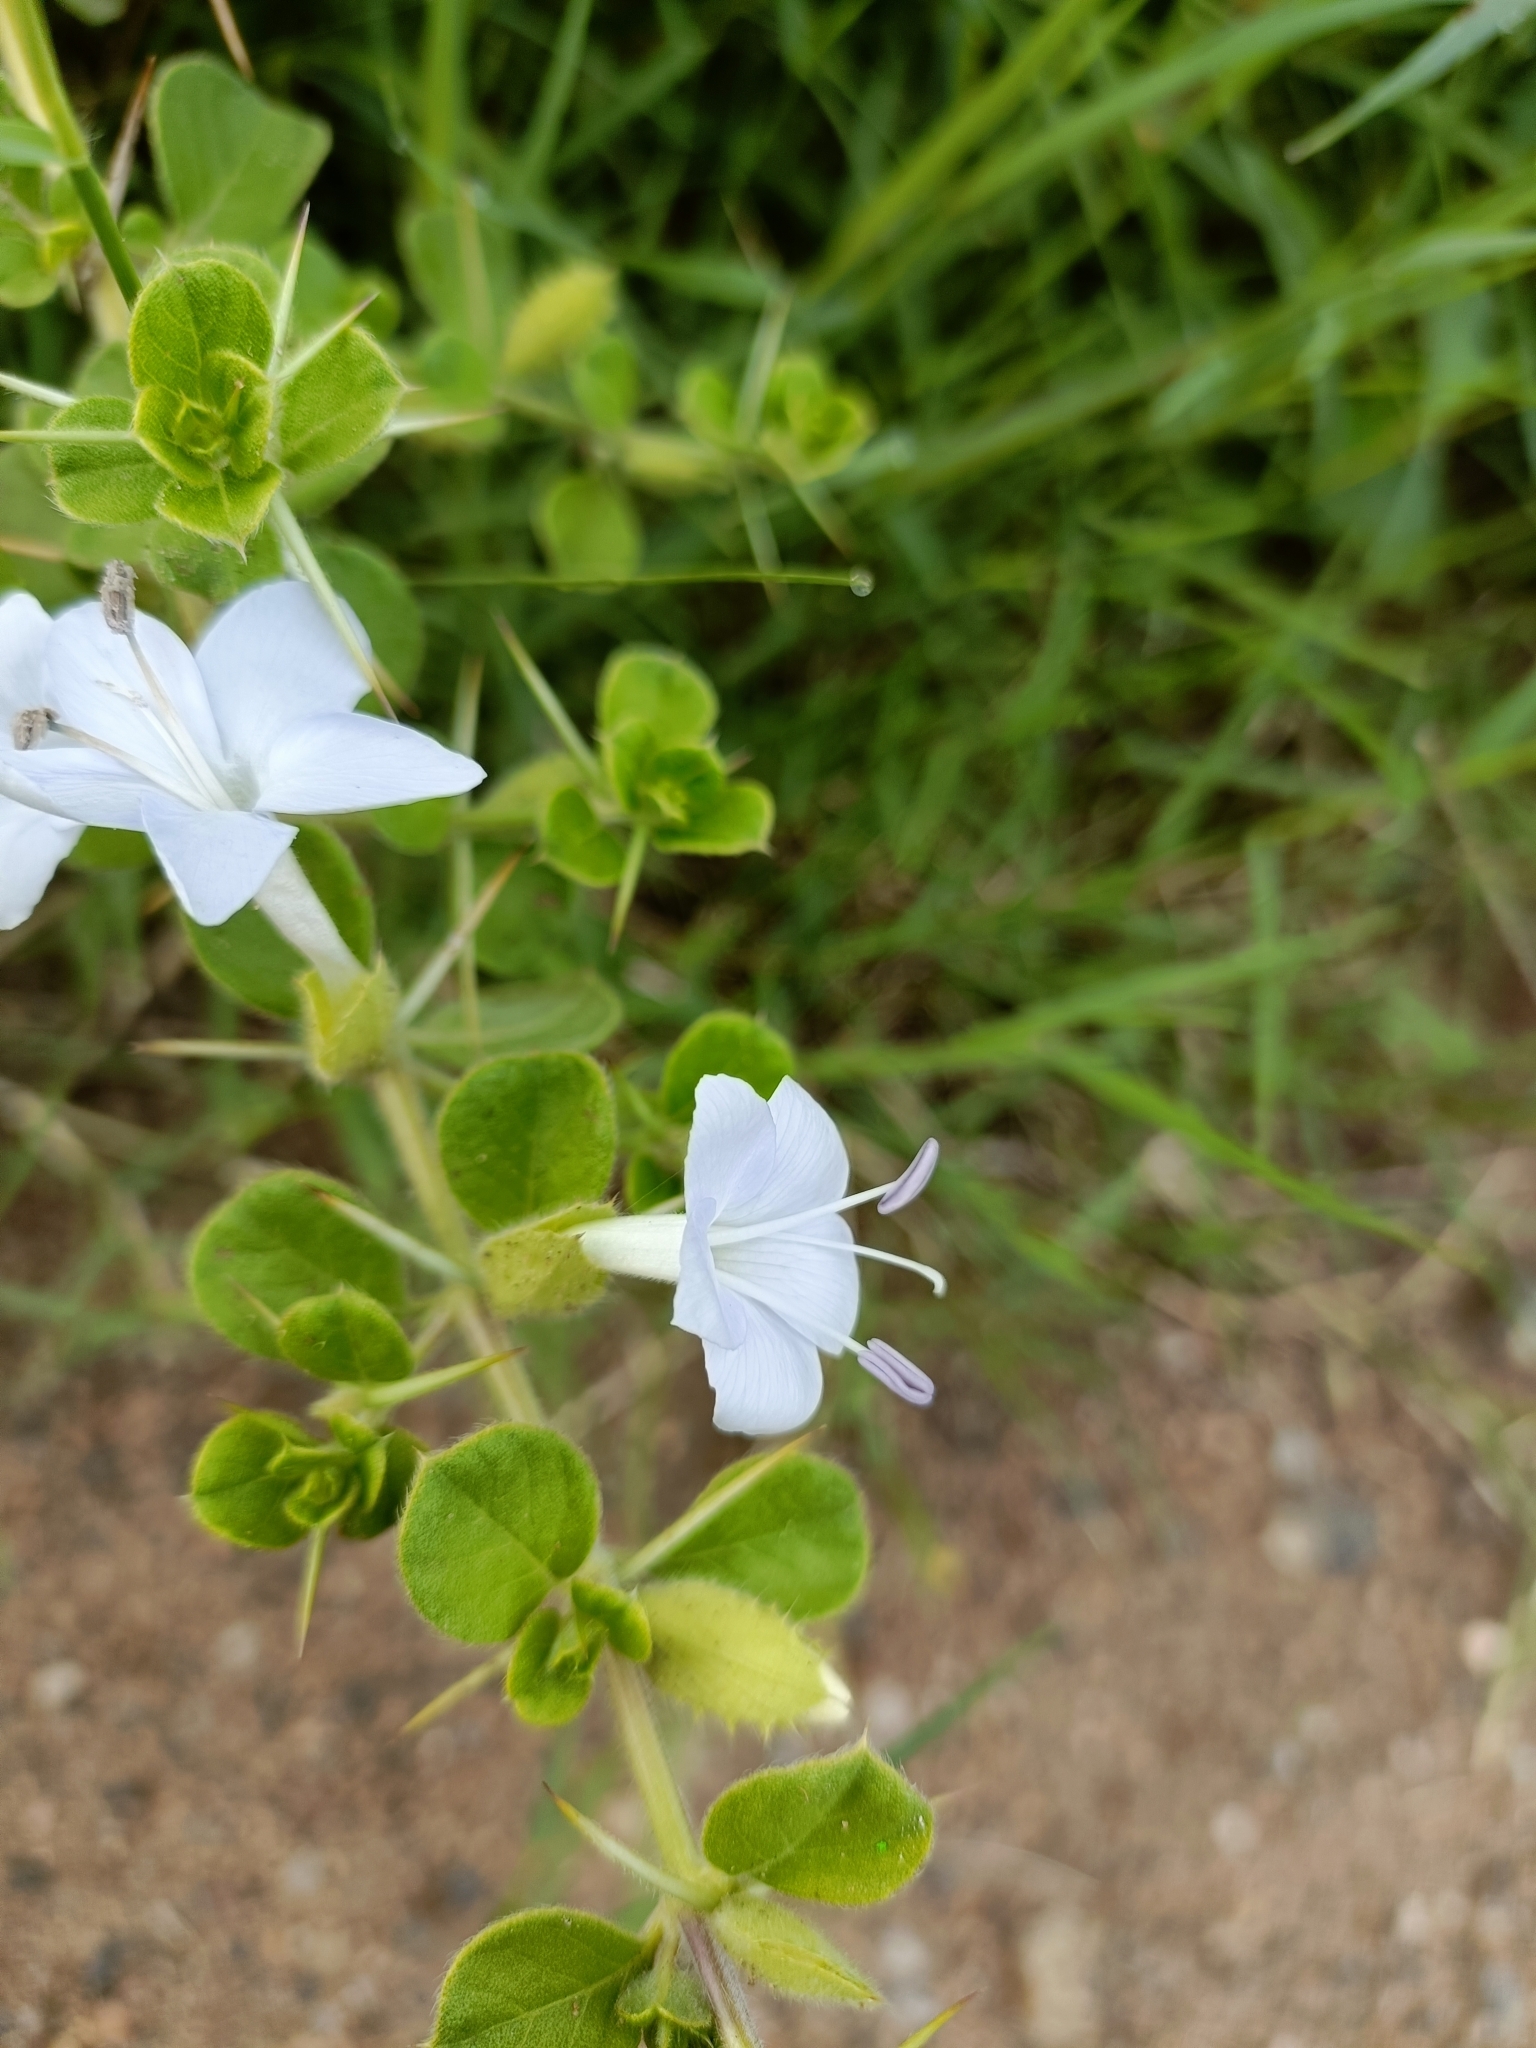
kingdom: Plantae
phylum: Tracheophyta
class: Magnoliopsida
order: Lamiales
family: Acanthaceae
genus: Barleria
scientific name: Barleria buxifolia
